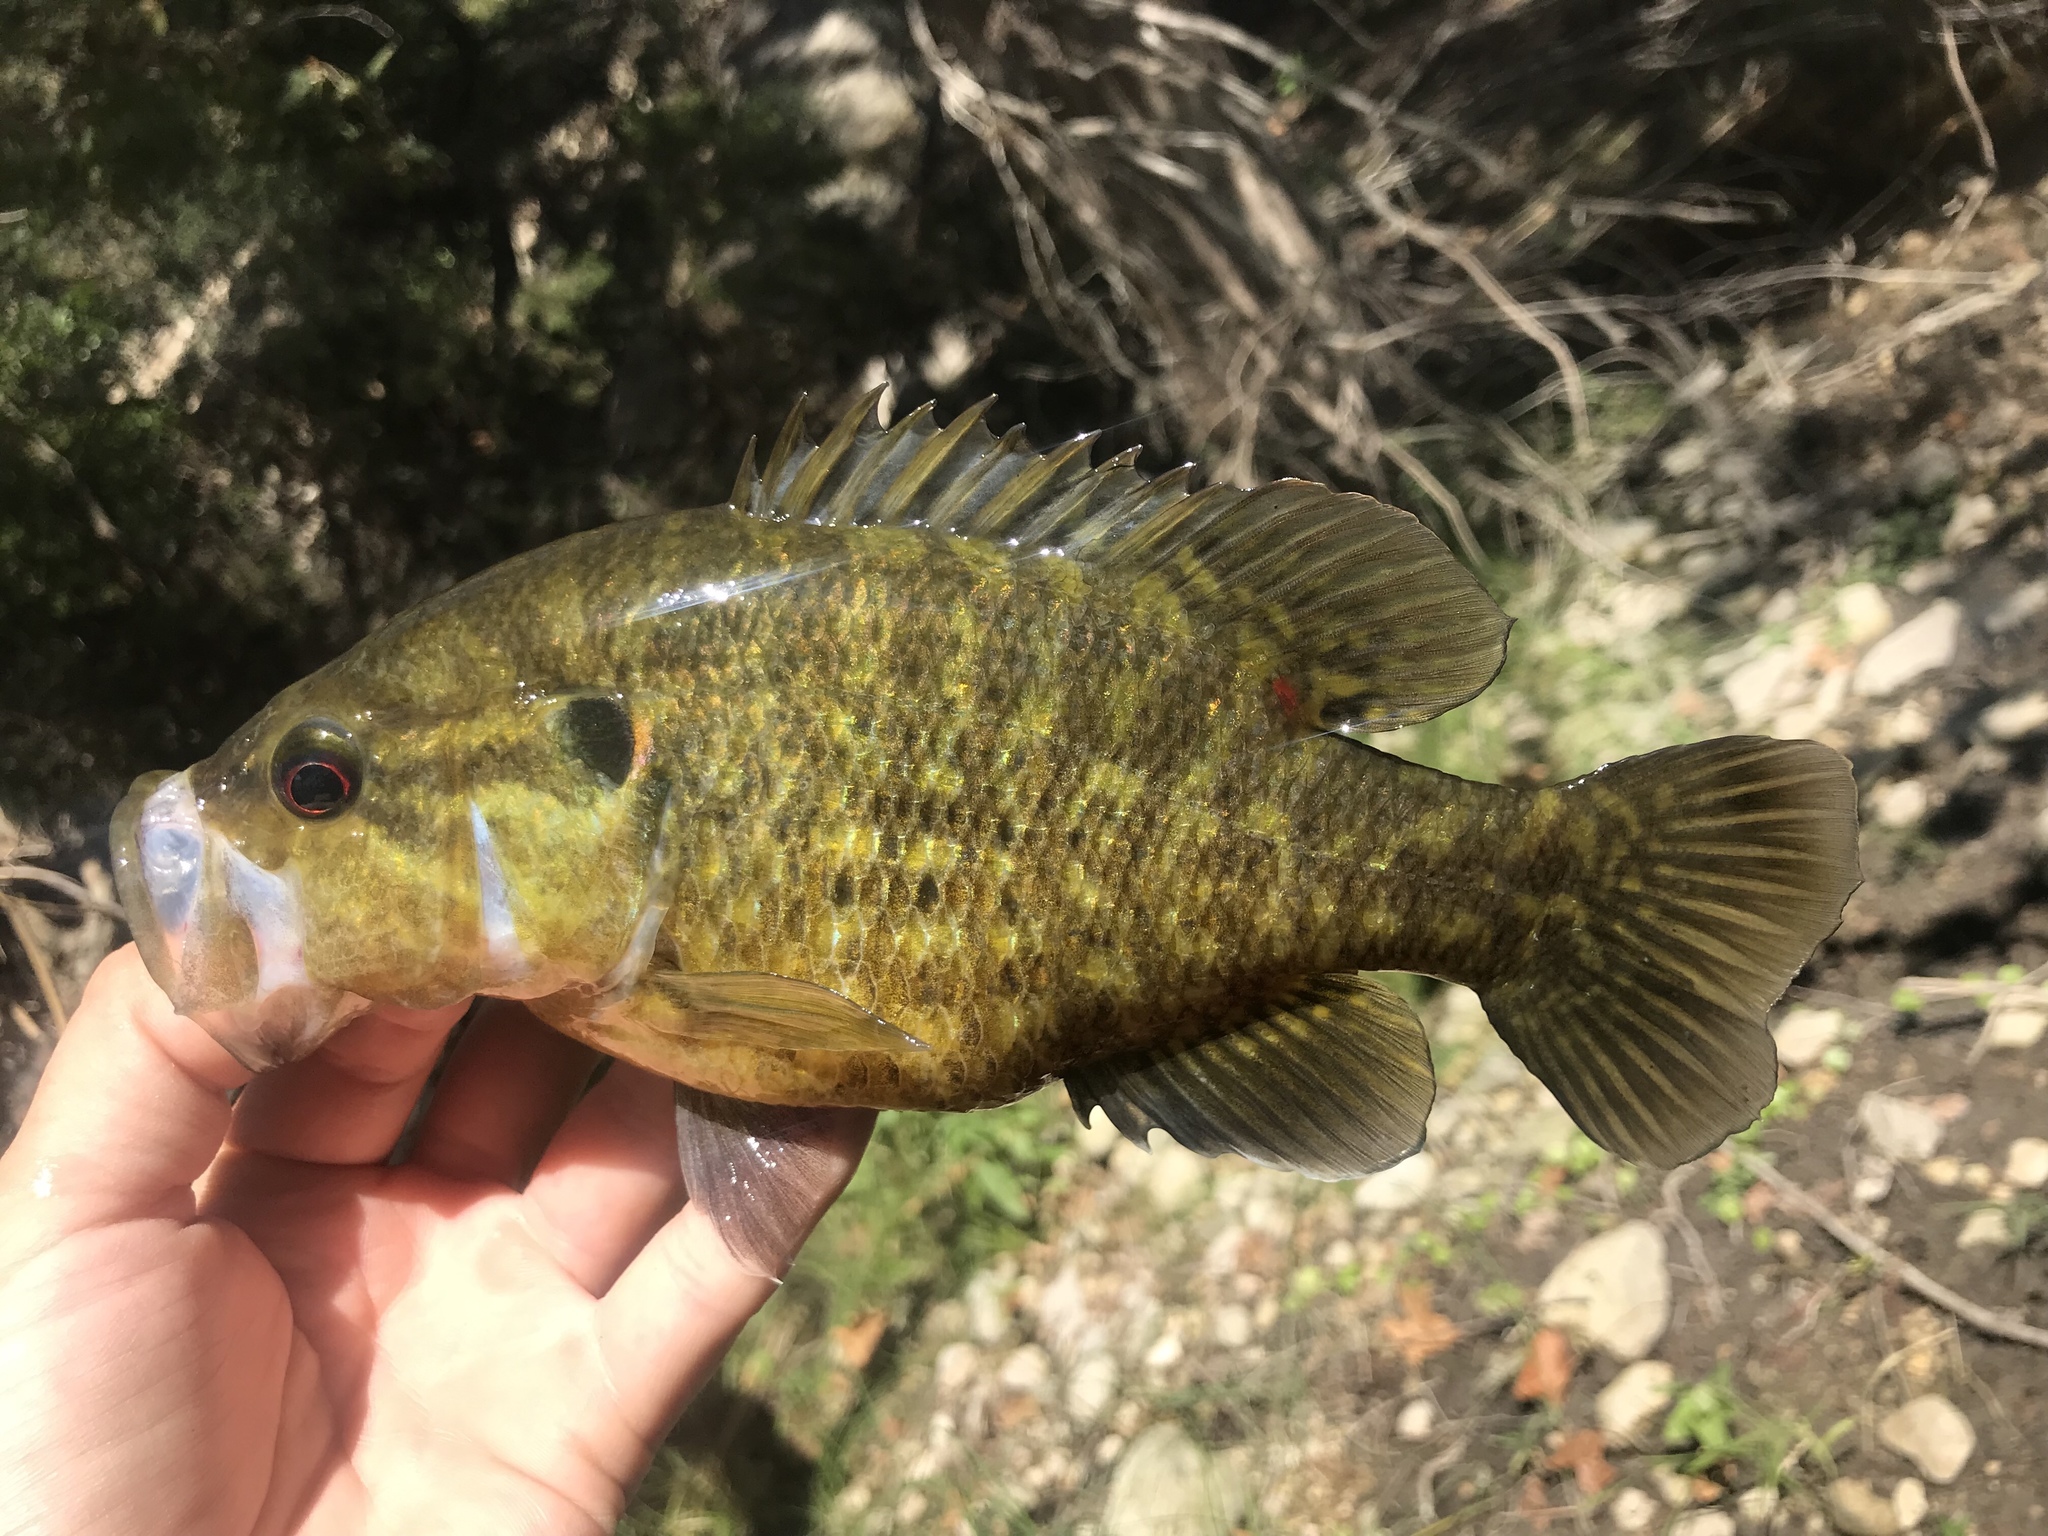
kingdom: Animalia
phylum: Chordata
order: Perciformes
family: Centrarchidae
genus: Lepomis
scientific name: Lepomis gulosus
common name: Warmouth
